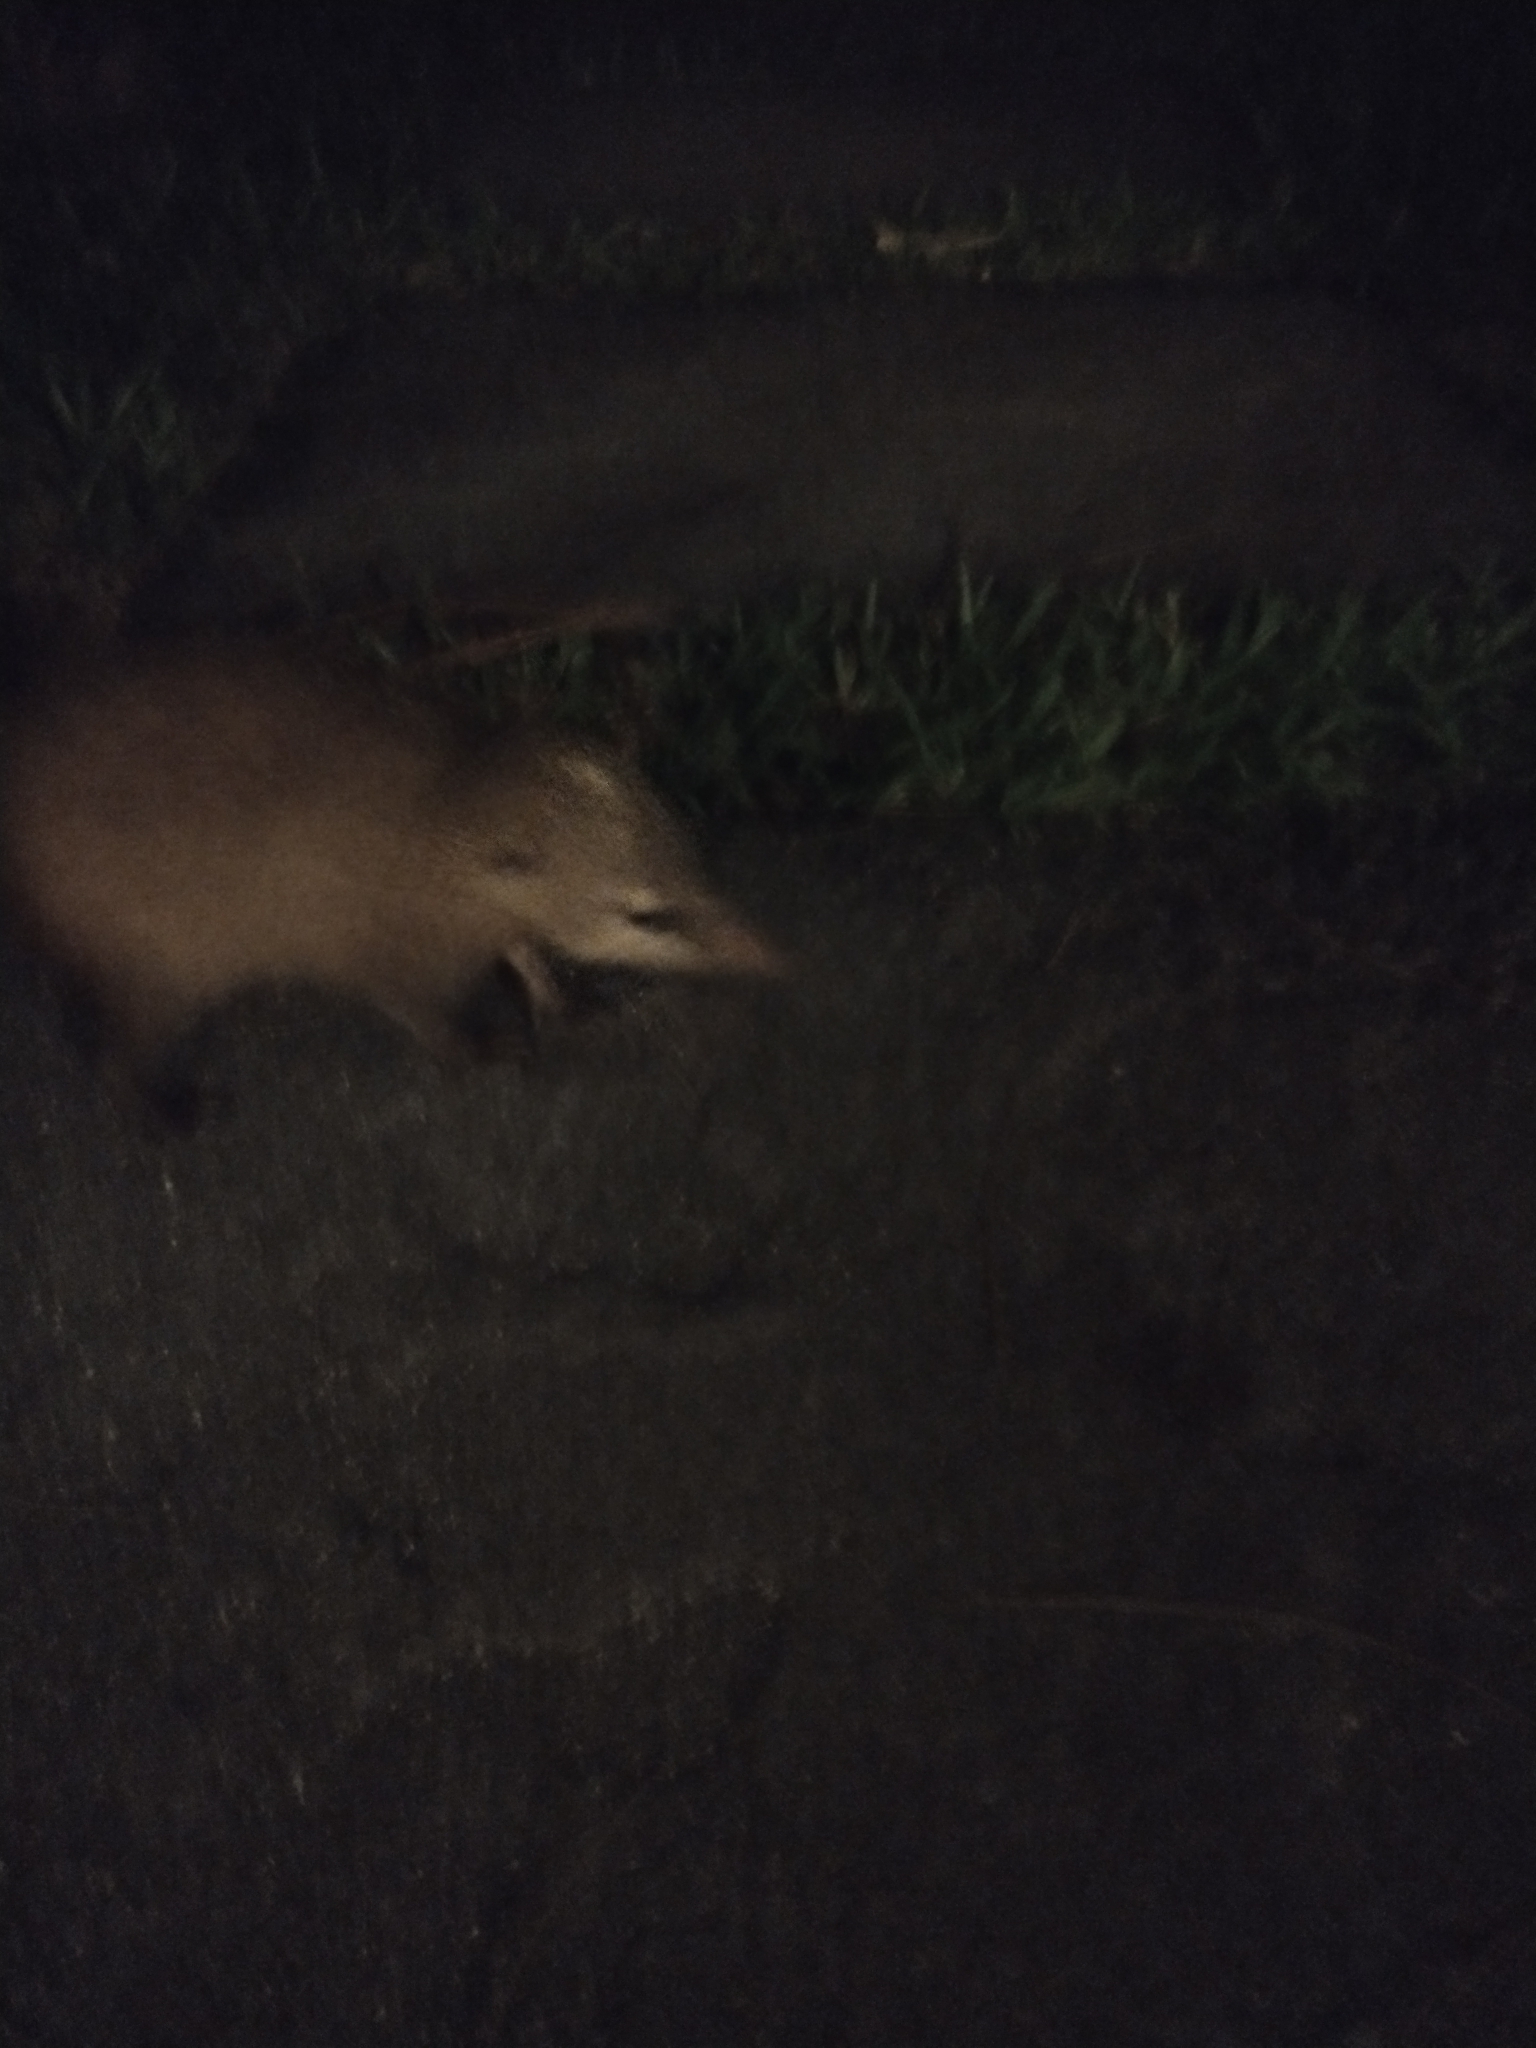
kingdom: Animalia
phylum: Chordata
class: Mammalia
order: Afrosoricida
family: Tenrecidae
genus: Tenrec
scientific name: Tenrec ecaudatus
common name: Common tenrec
